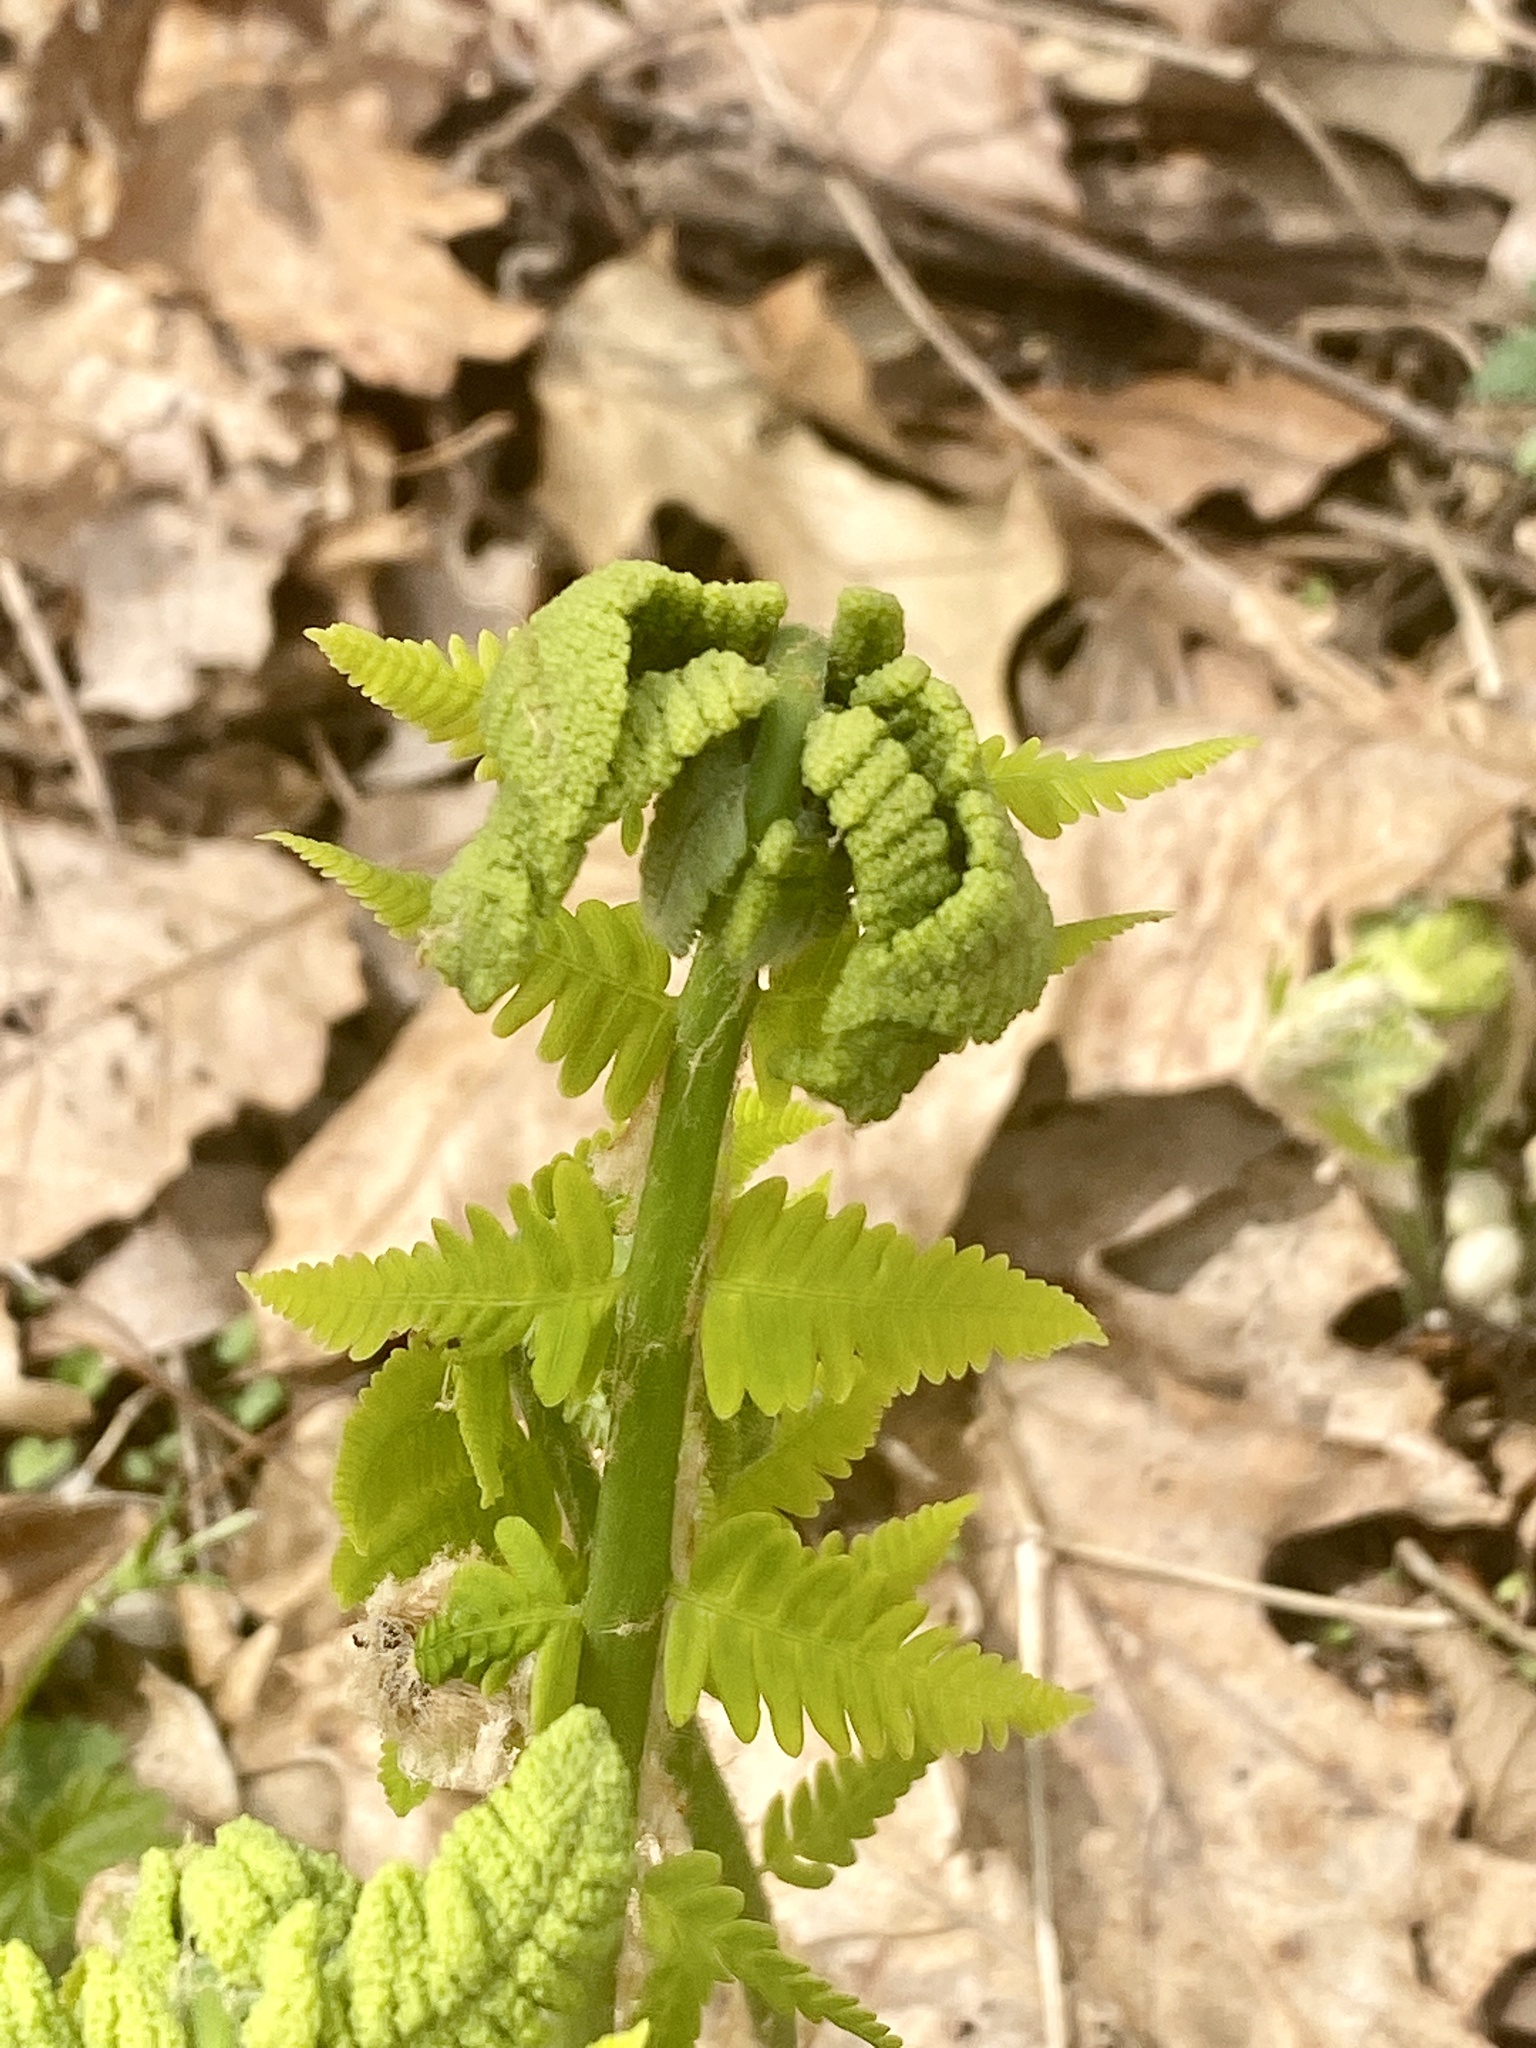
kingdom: Plantae
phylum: Tracheophyta
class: Polypodiopsida
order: Osmundales
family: Osmundaceae
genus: Claytosmunda
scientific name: Claytosmunda claytoniana
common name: Clayton's fern
